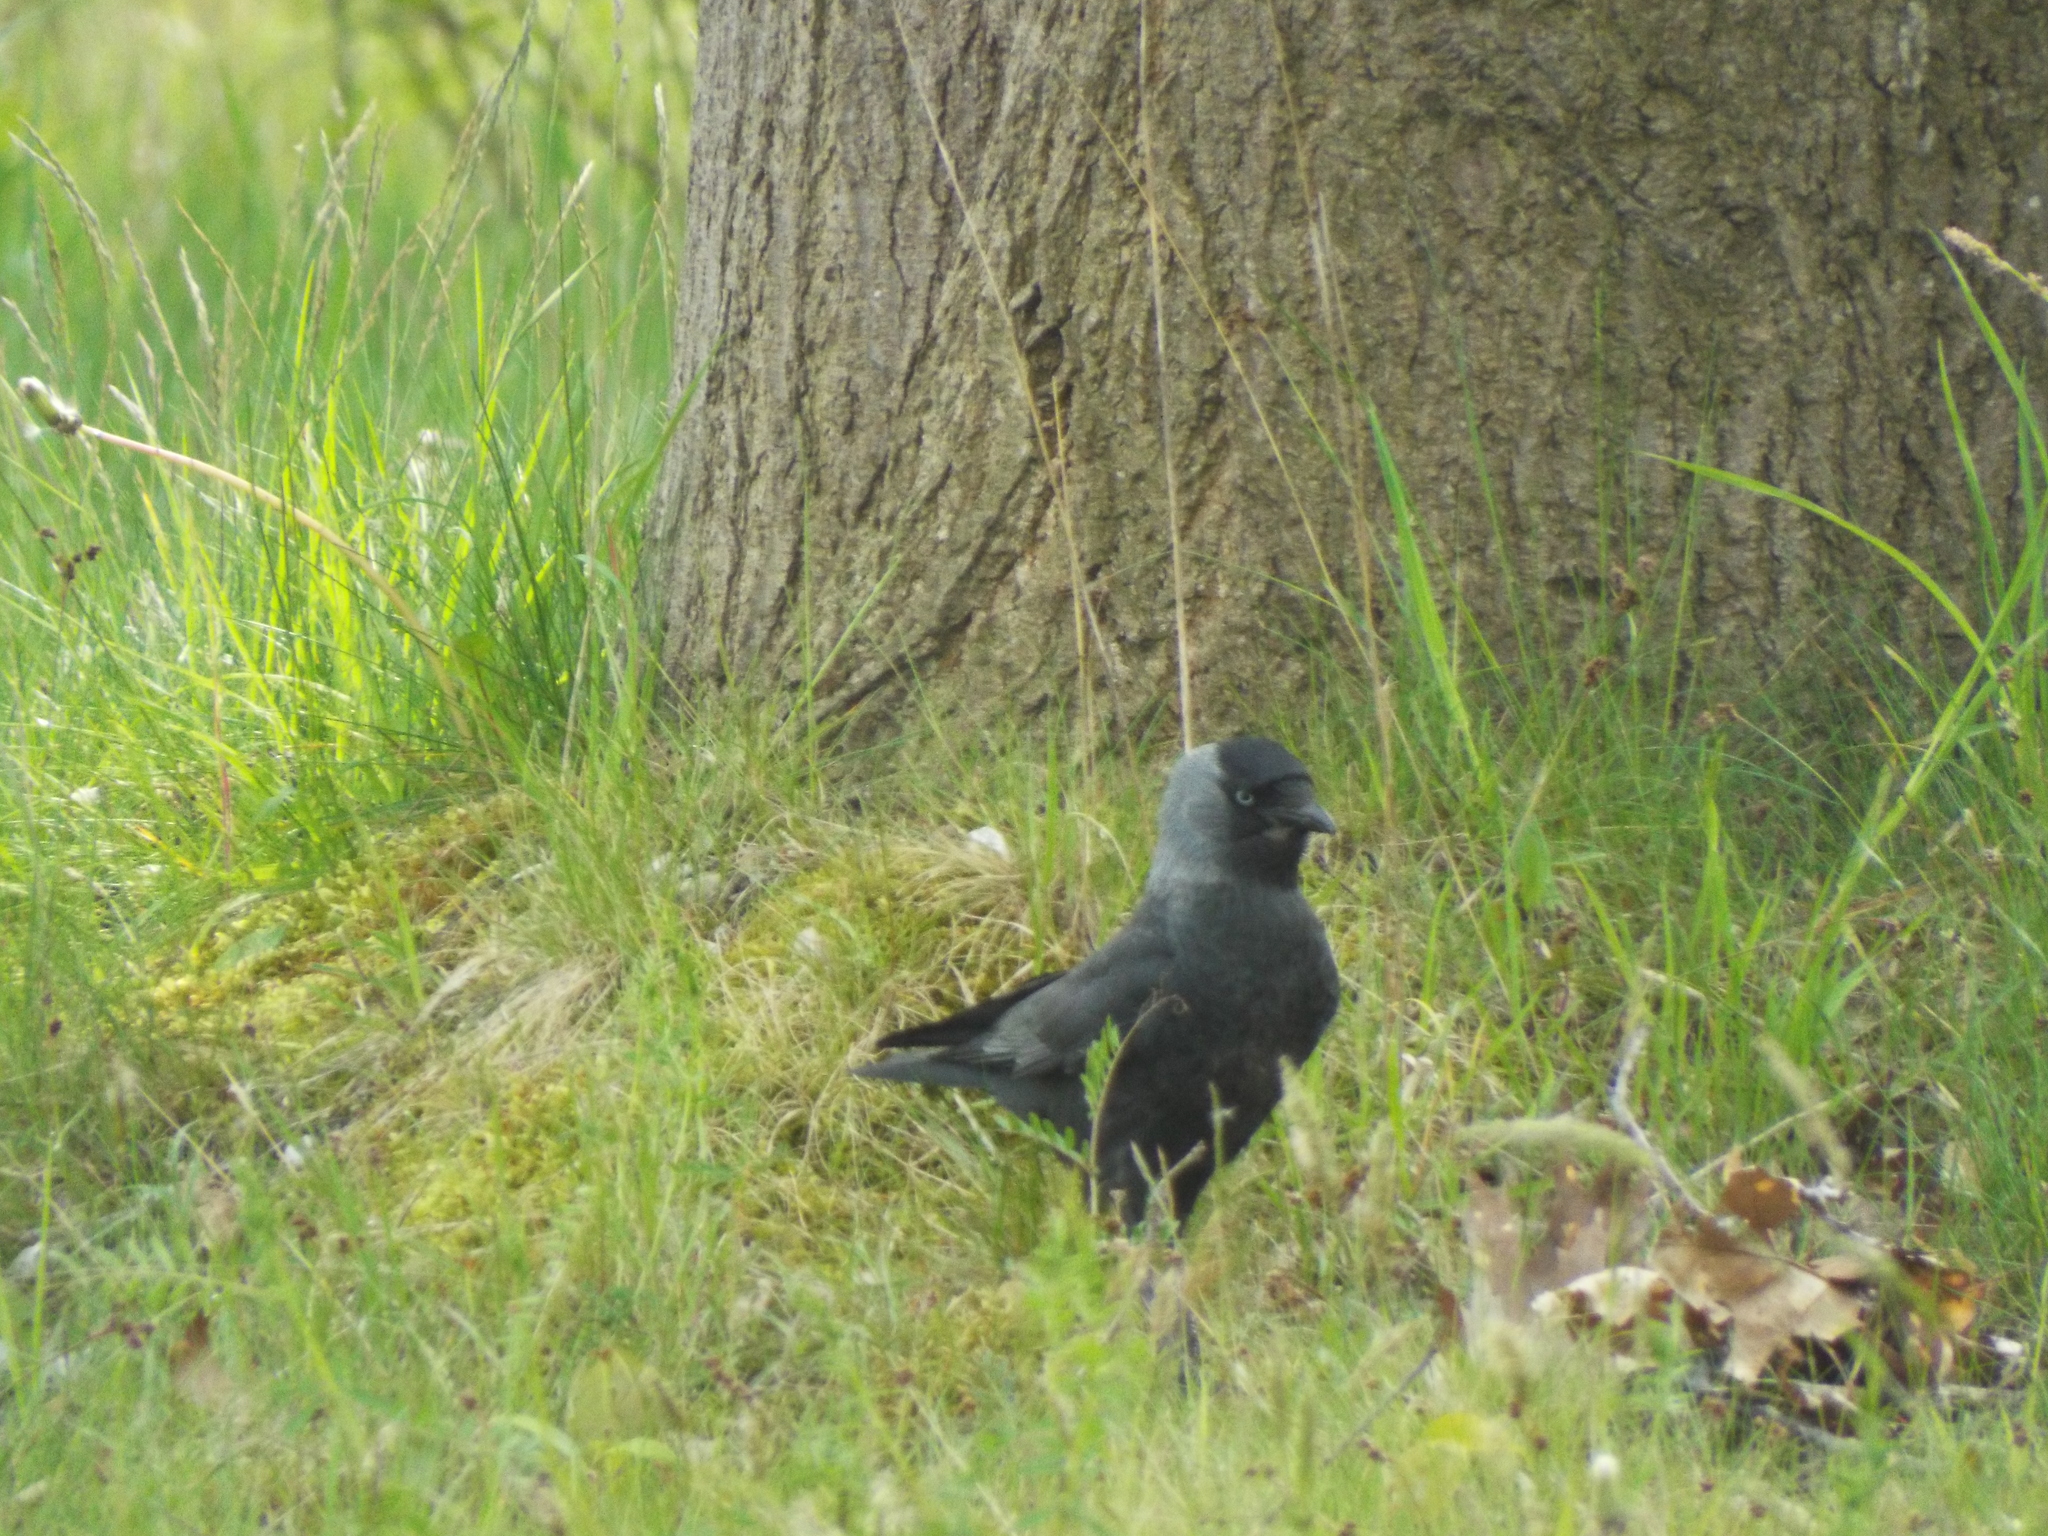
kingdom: Animalia
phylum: Chordata
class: Aves
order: Passeriformes
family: Corvidae
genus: Coloeus
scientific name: Coloeus monedula
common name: Western jackdaw
